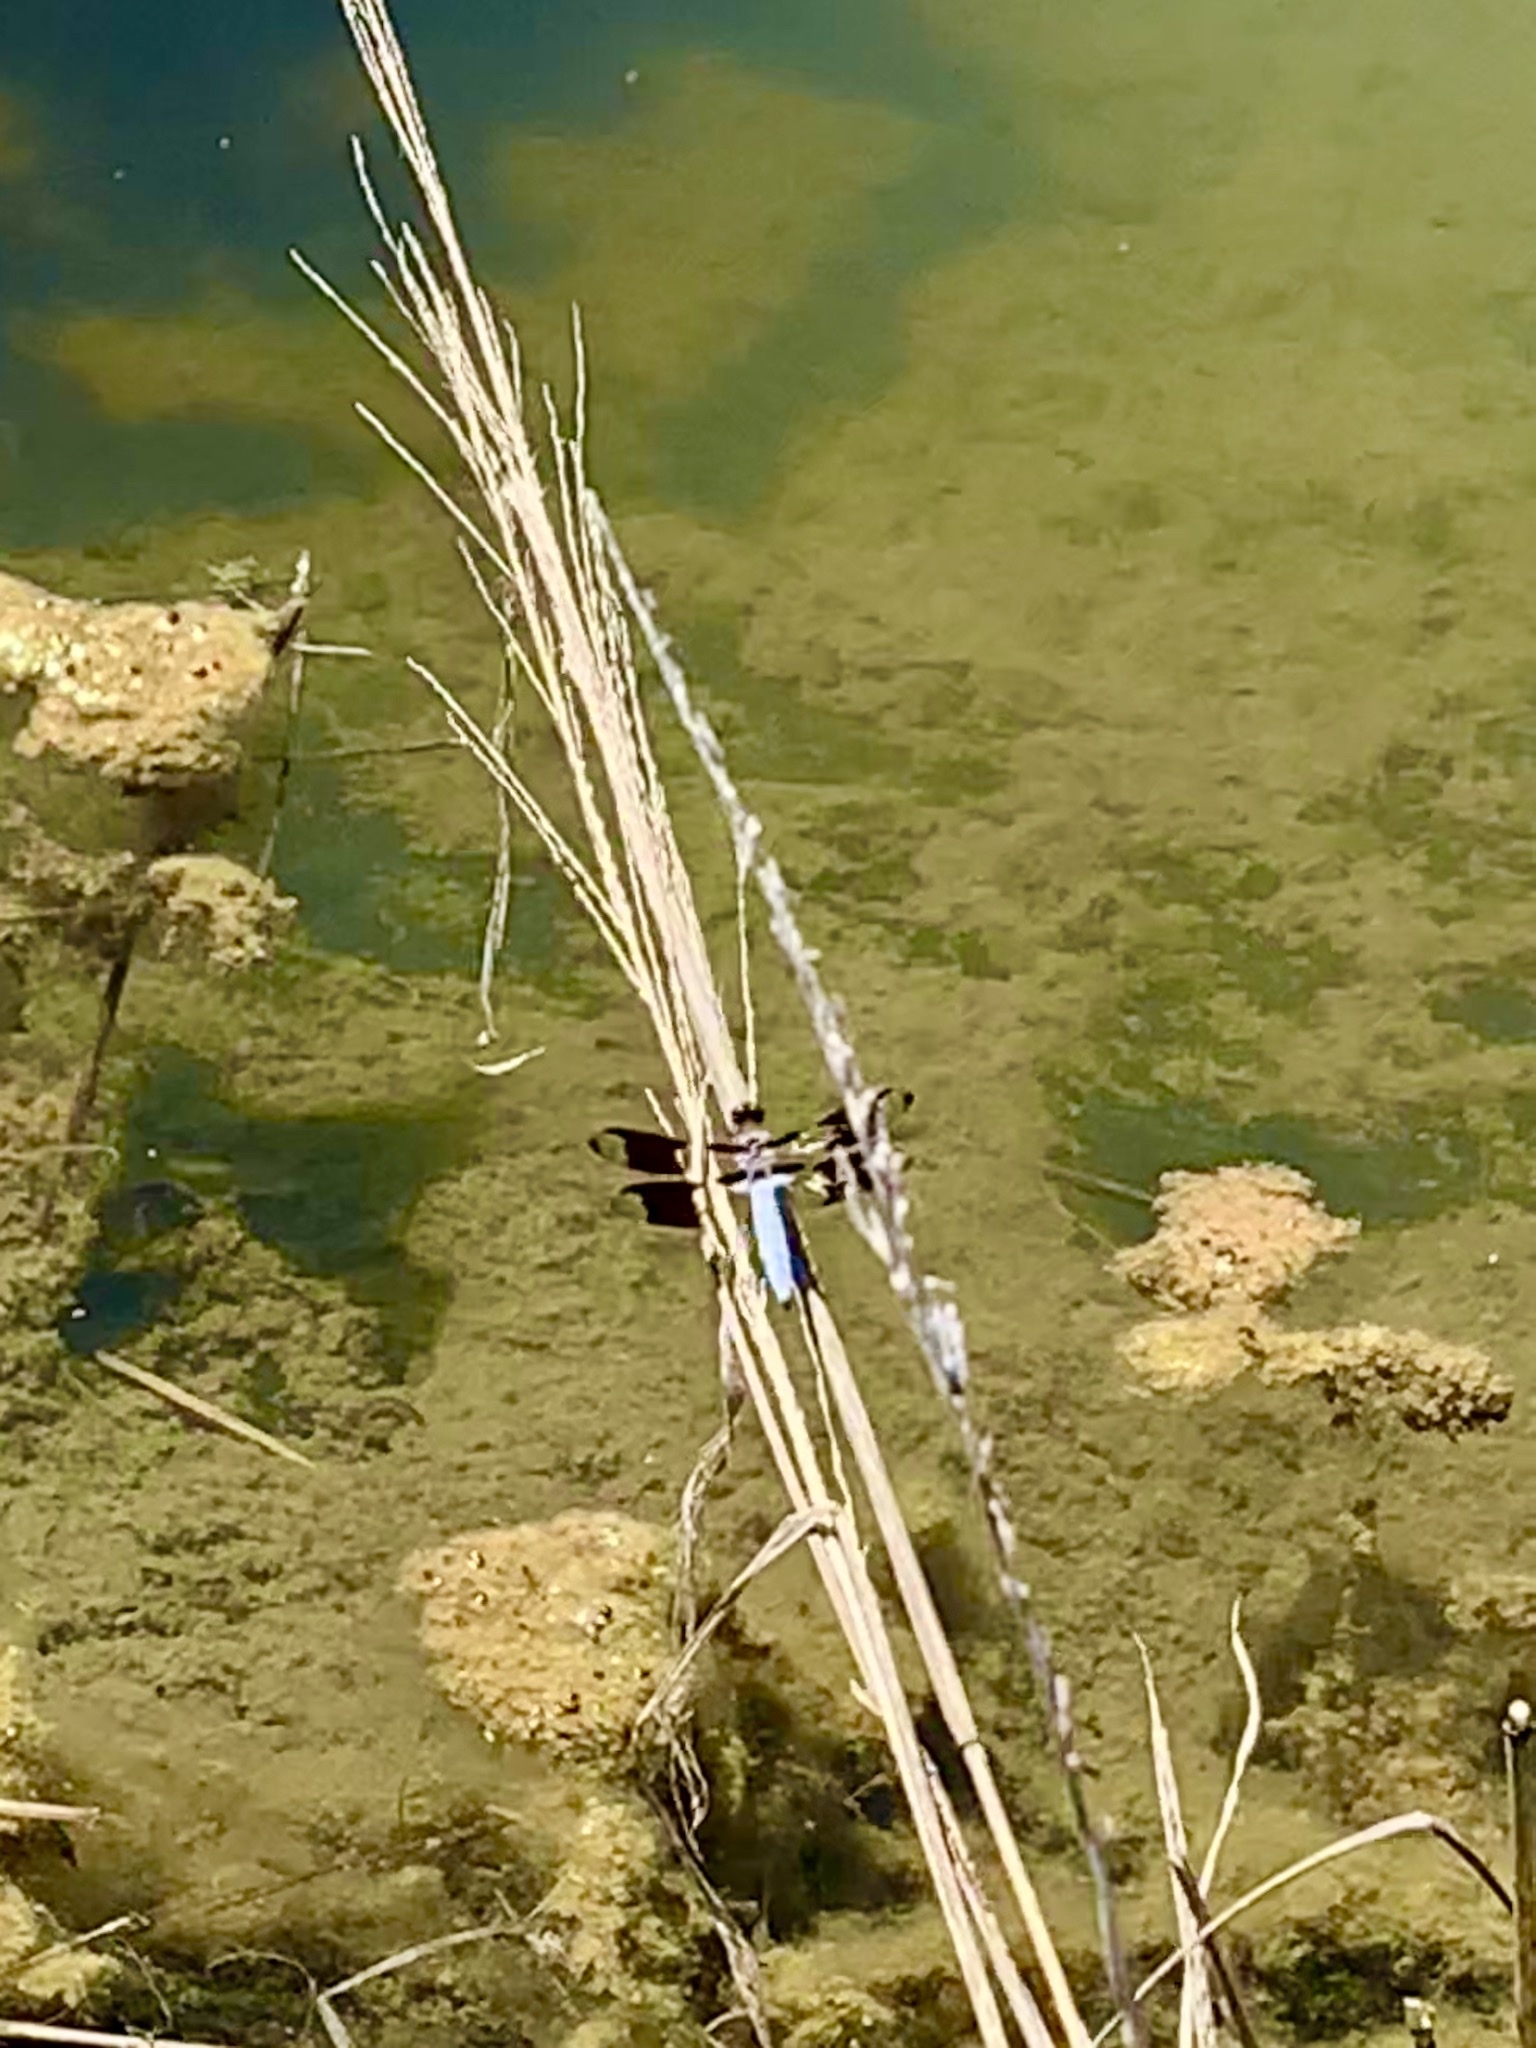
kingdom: Animalia
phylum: Arthropoda
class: Insecta
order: Odonata
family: Libellulidae
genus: Plathemis
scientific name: Plathemis lydia
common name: Common whitetail
